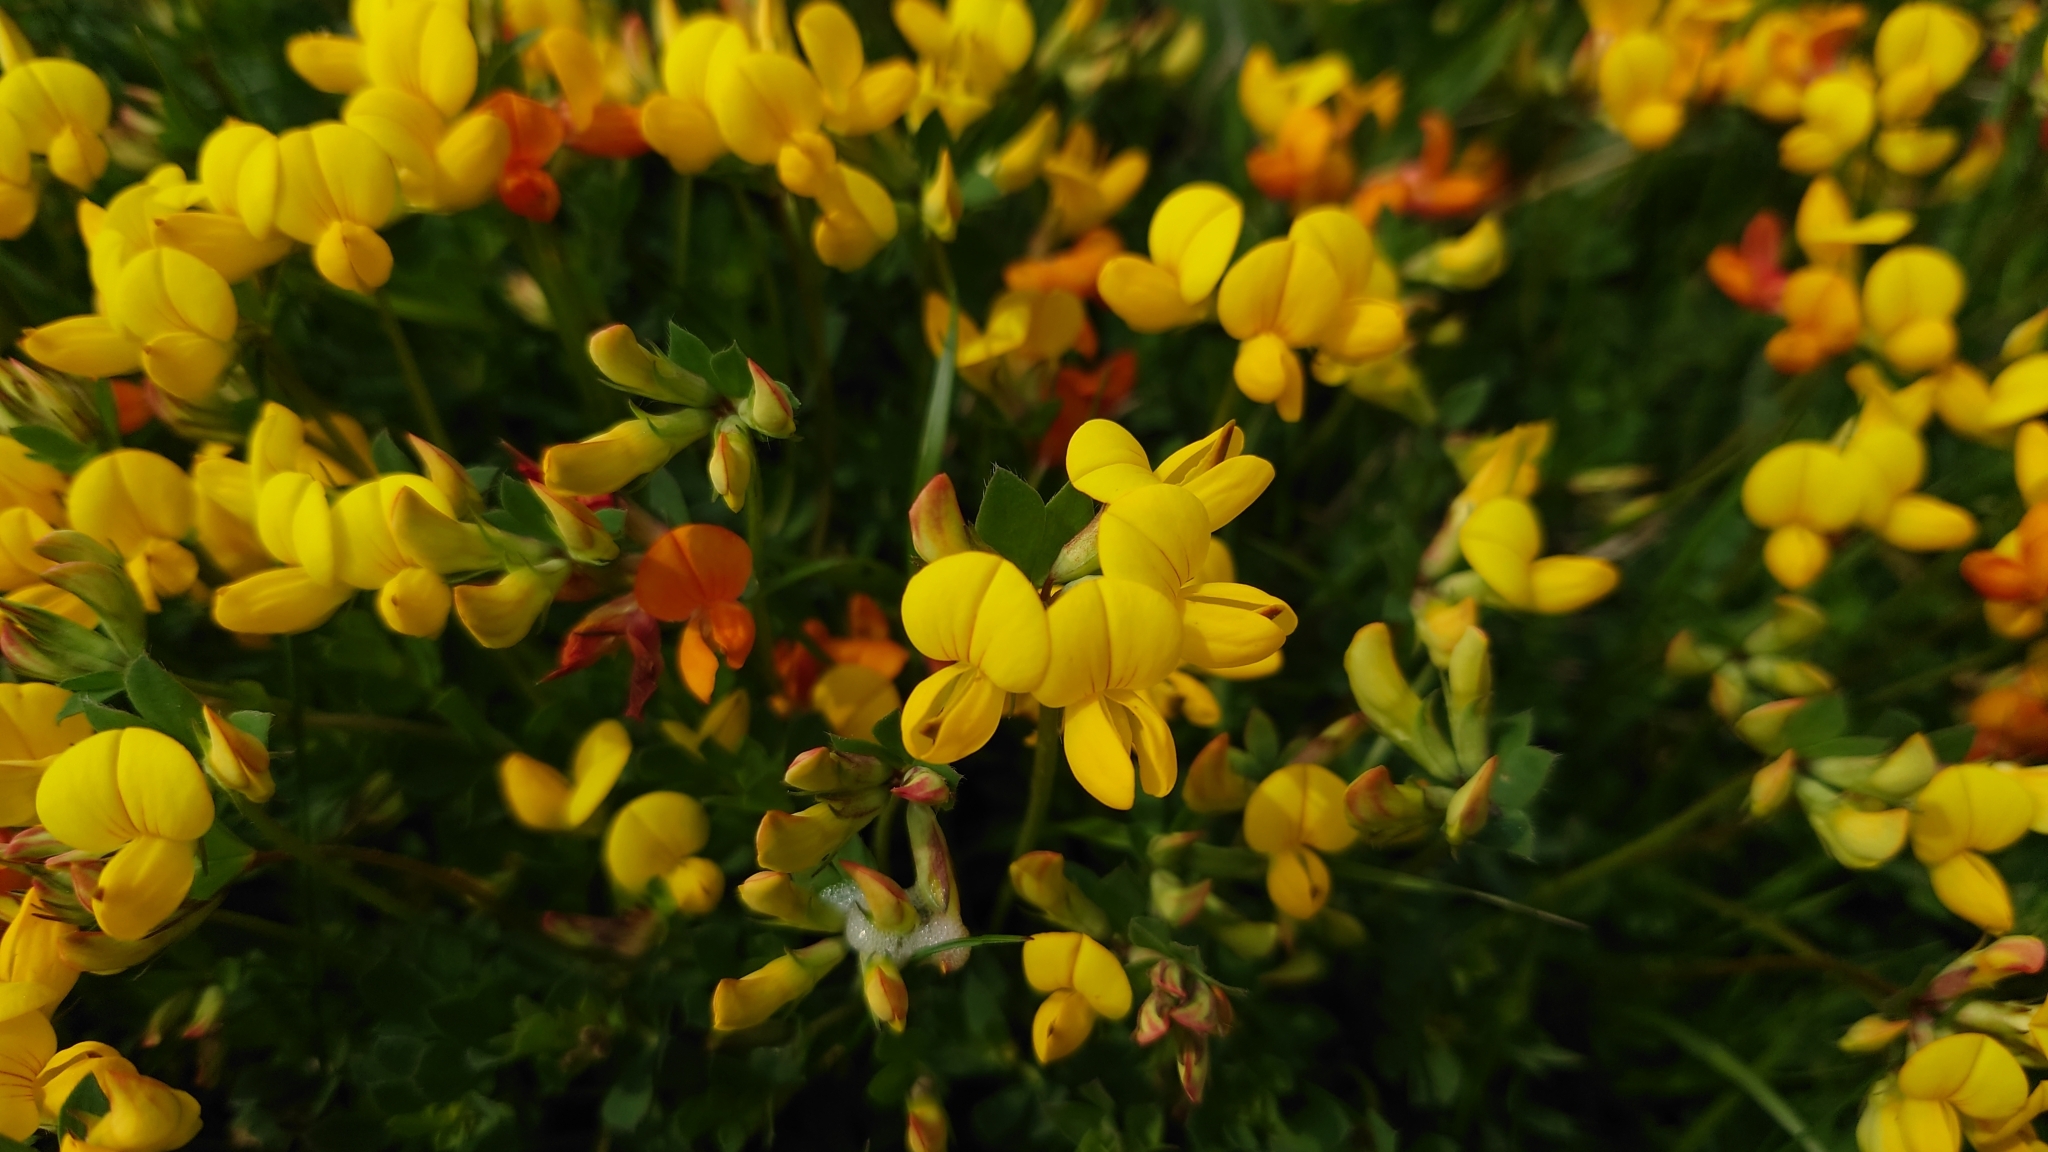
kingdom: Plantae
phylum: Tracheophyta
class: Magnoliopsida
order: Fabales
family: Fabaceae
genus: Lotus
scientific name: Lotus corniculatus
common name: Common bird's-foot-trefoil
